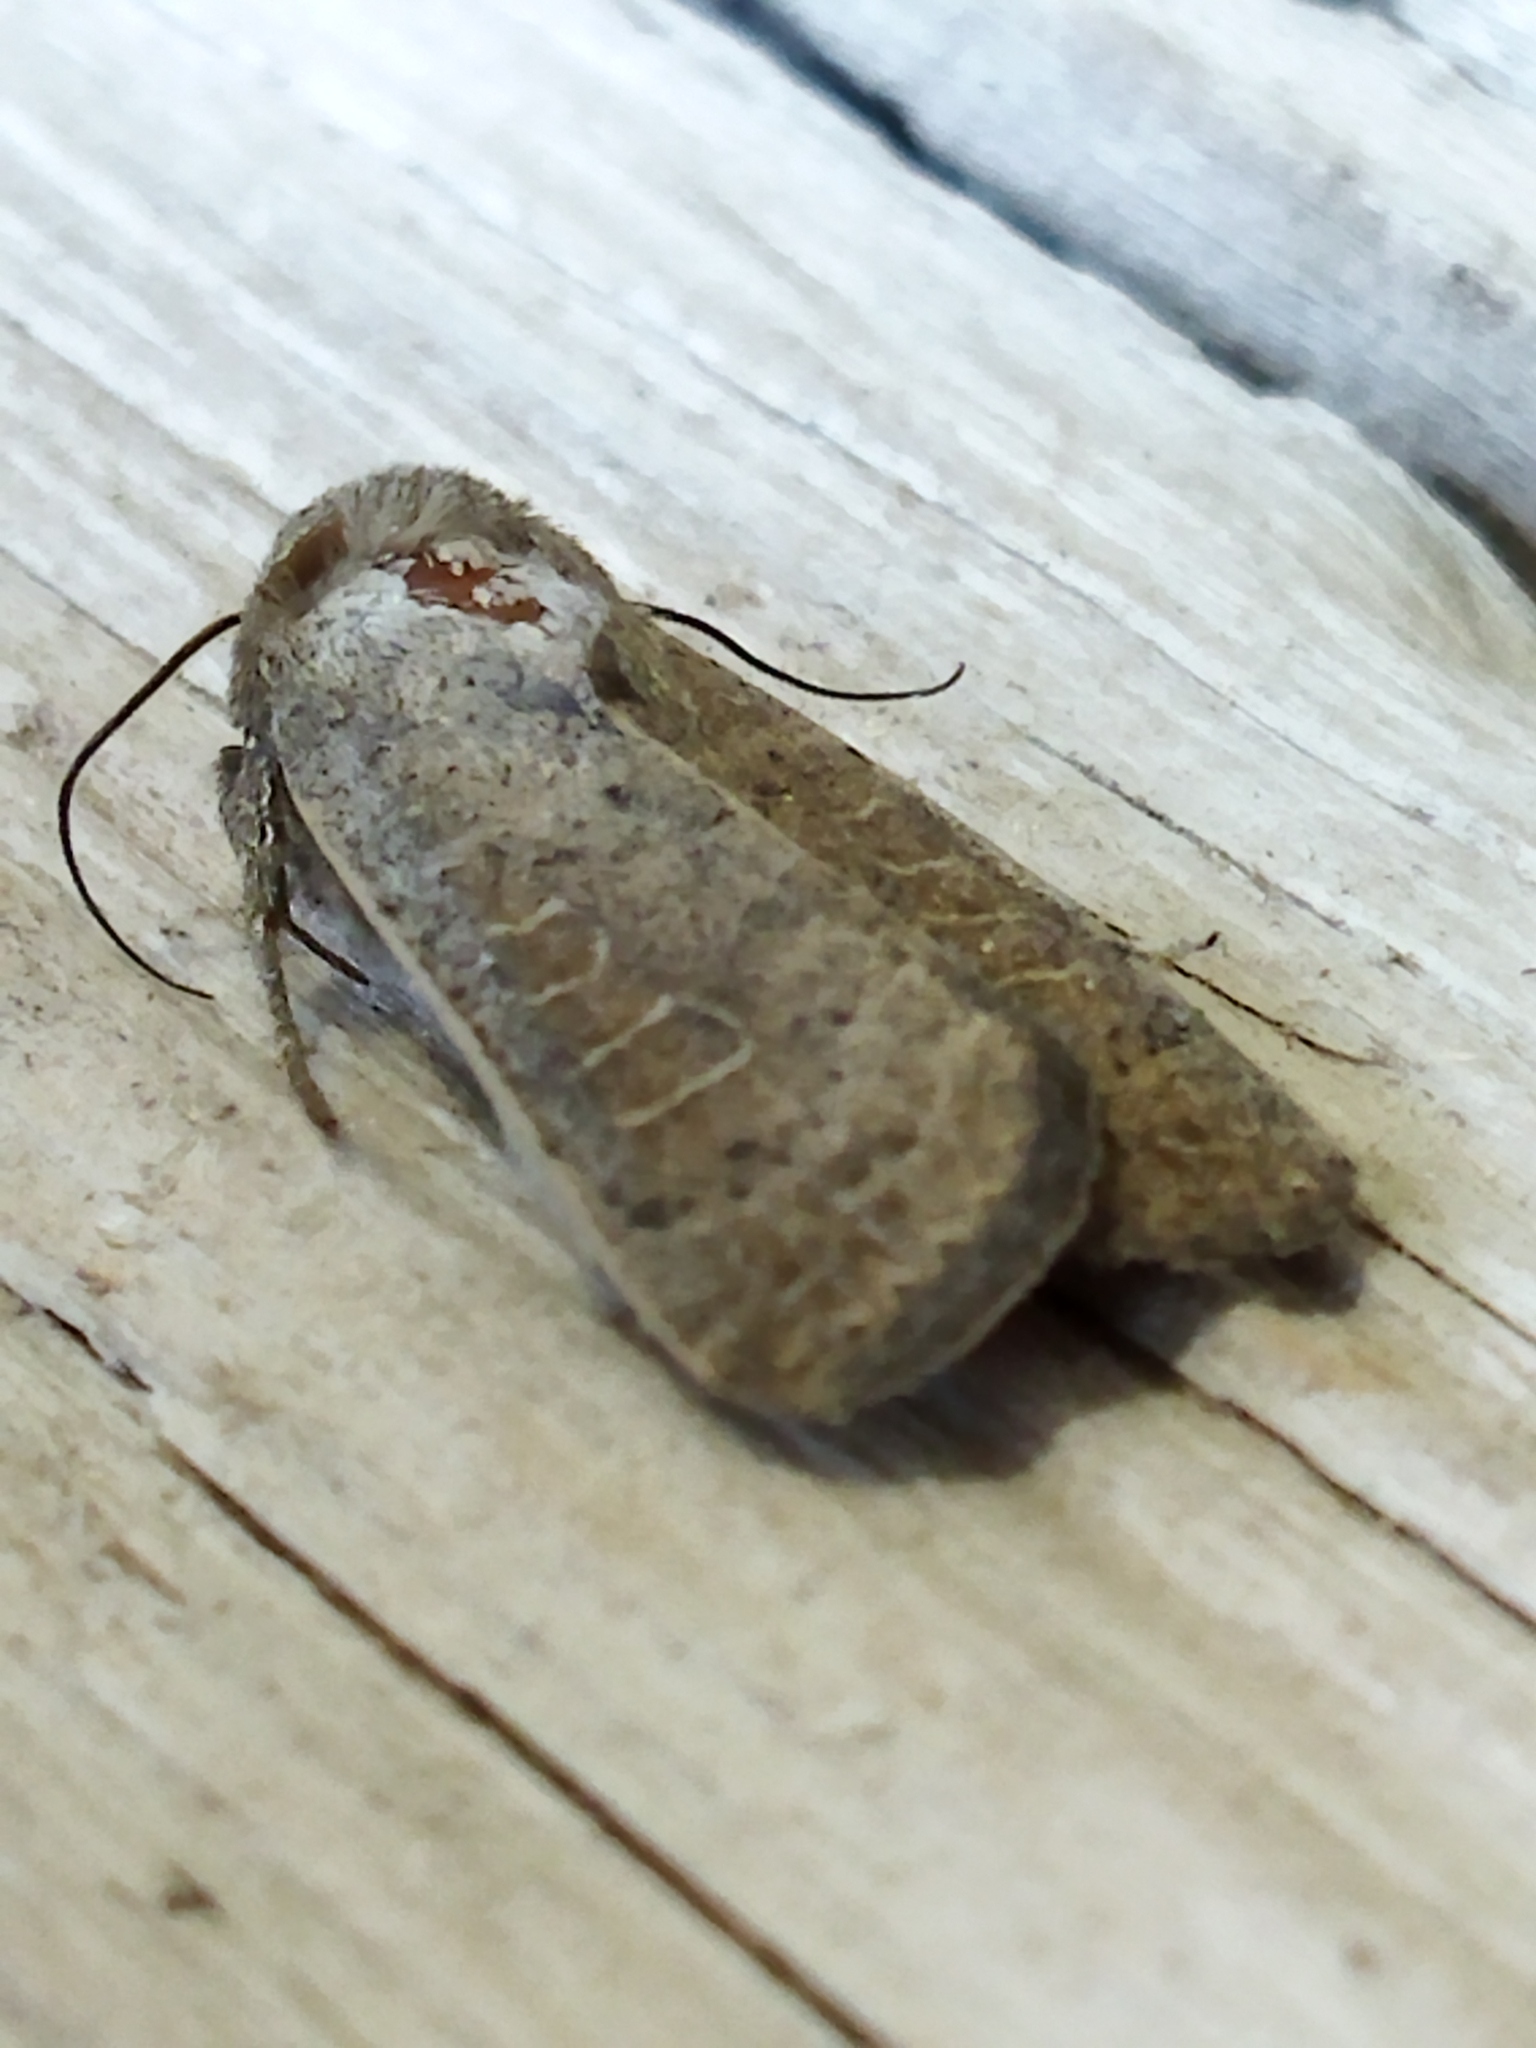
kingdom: Animalia
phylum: Arthropoda
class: Insecta
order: Lepidoptera
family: Noctuidae
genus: Hoplodrina
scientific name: Hoplodrina ambigua
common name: Vine's rustic
